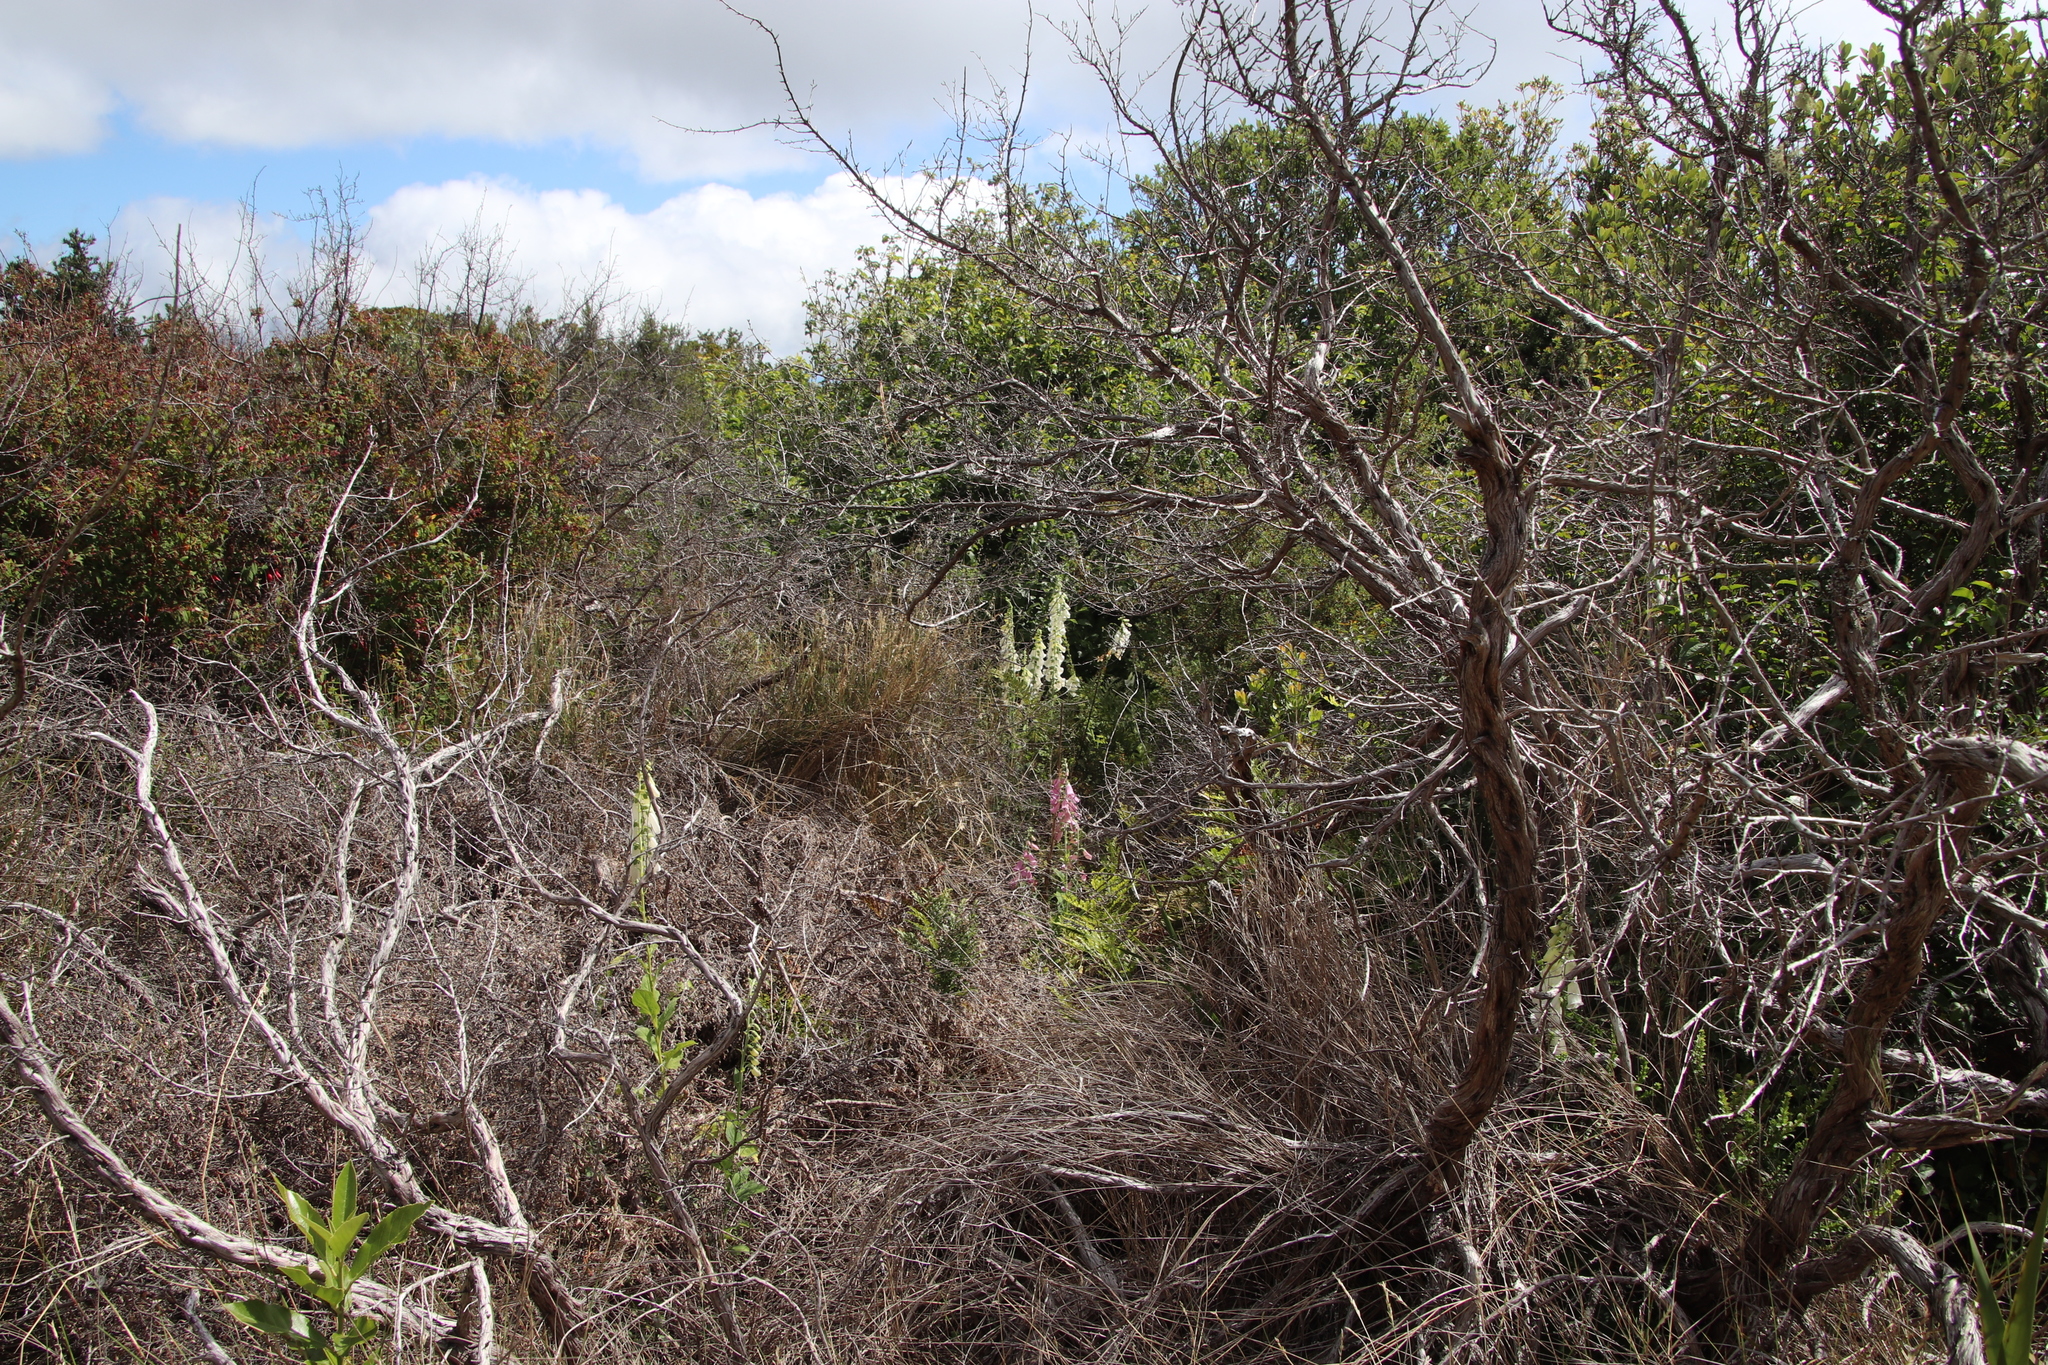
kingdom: Plantae
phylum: Tracheophyta
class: Magnoliopsida
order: Lamiales
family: Plantaginaceae
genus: Digitalis
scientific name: Digitalis purpurea
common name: Foxglove
